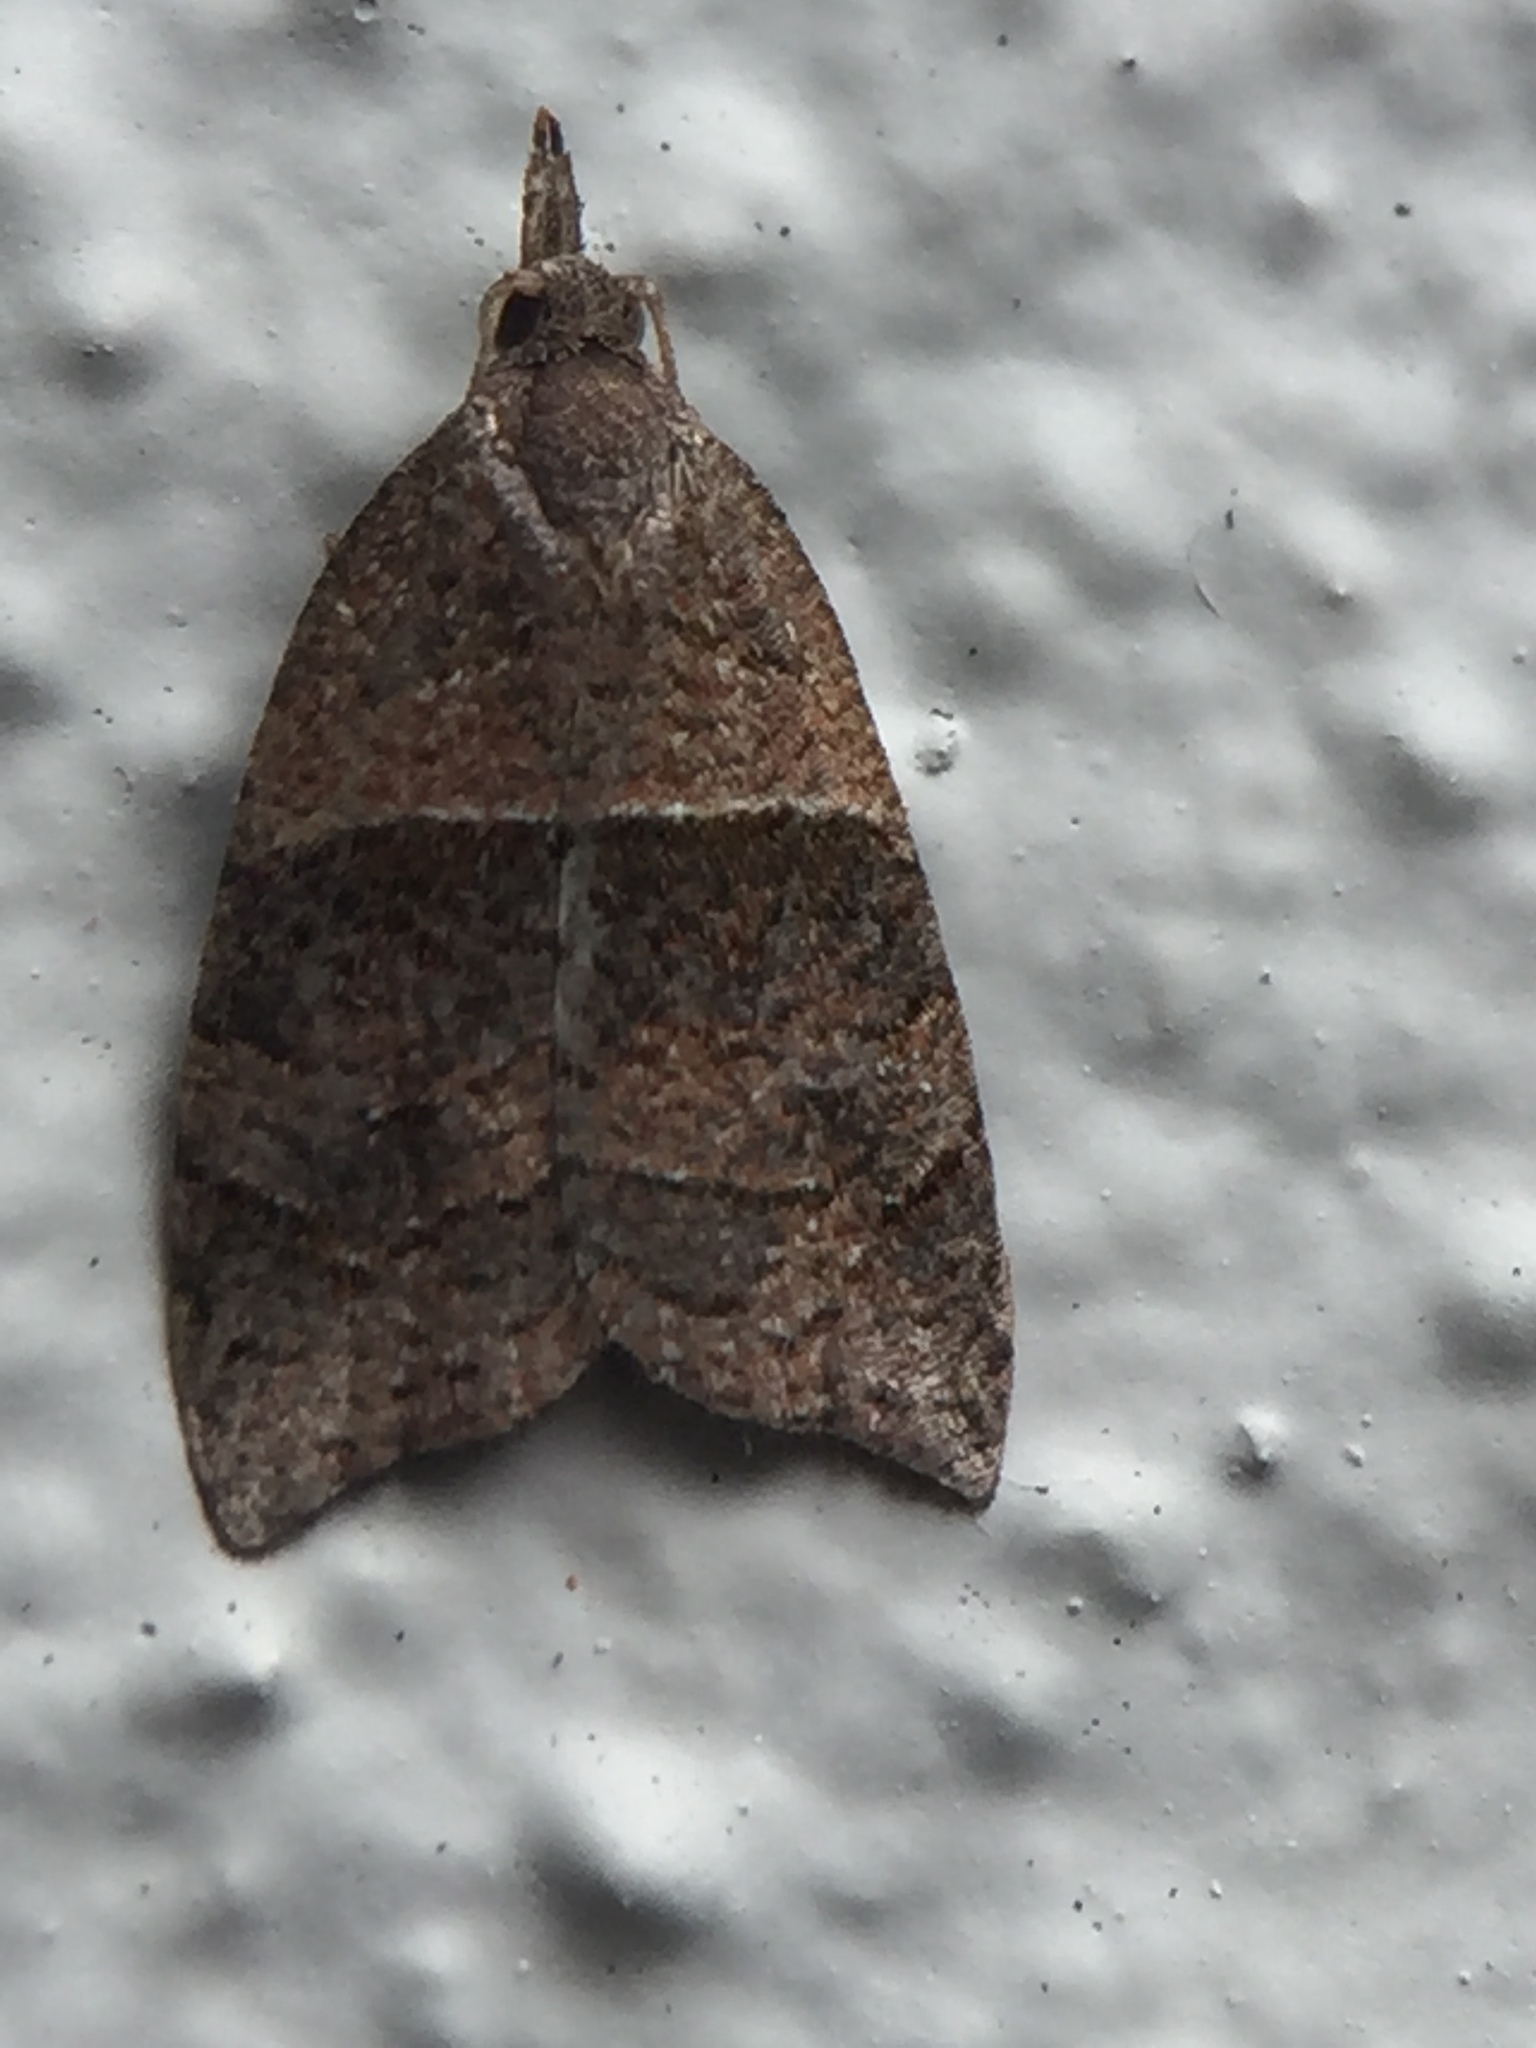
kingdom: Animalia
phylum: Arthropoda
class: Insecta
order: Lepidoptera
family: Tortricidae
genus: Cnephasia
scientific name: Cnephasia incertana
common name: Light grey tortrix
